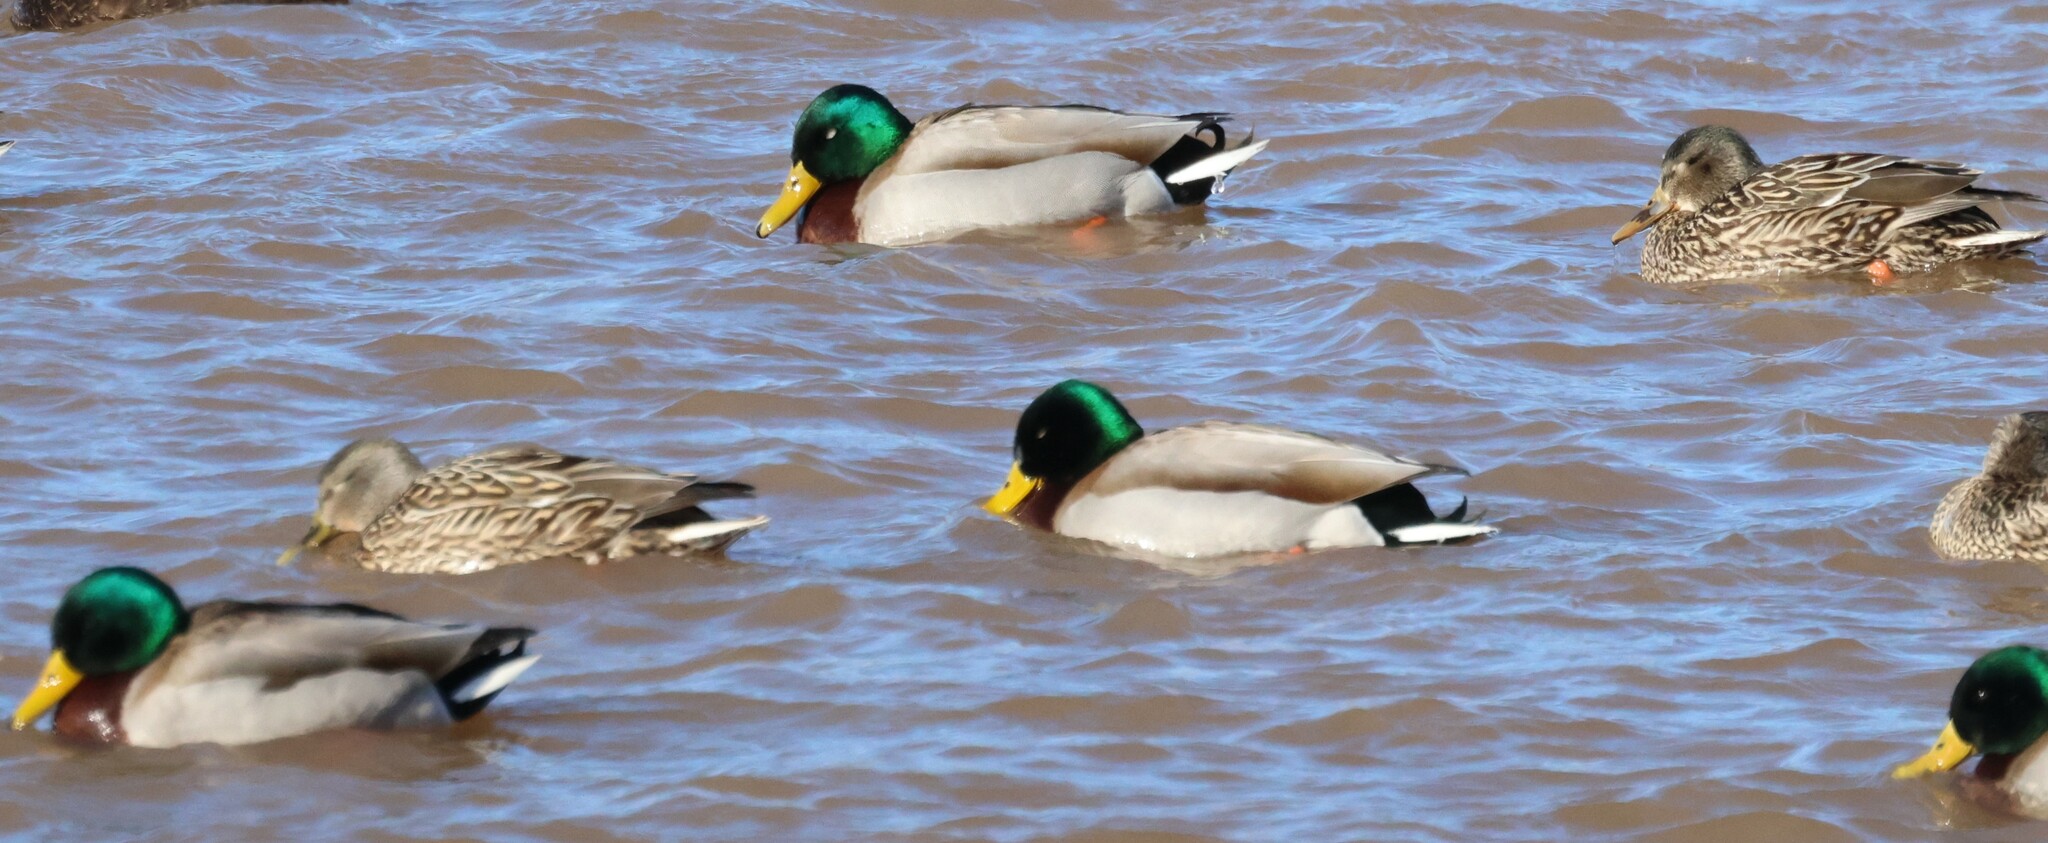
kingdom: Animalia
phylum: Chordata
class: Aves
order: Anseriformes
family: Anatidae
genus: Anas
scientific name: Anas platyrhynchos
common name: Mallard
